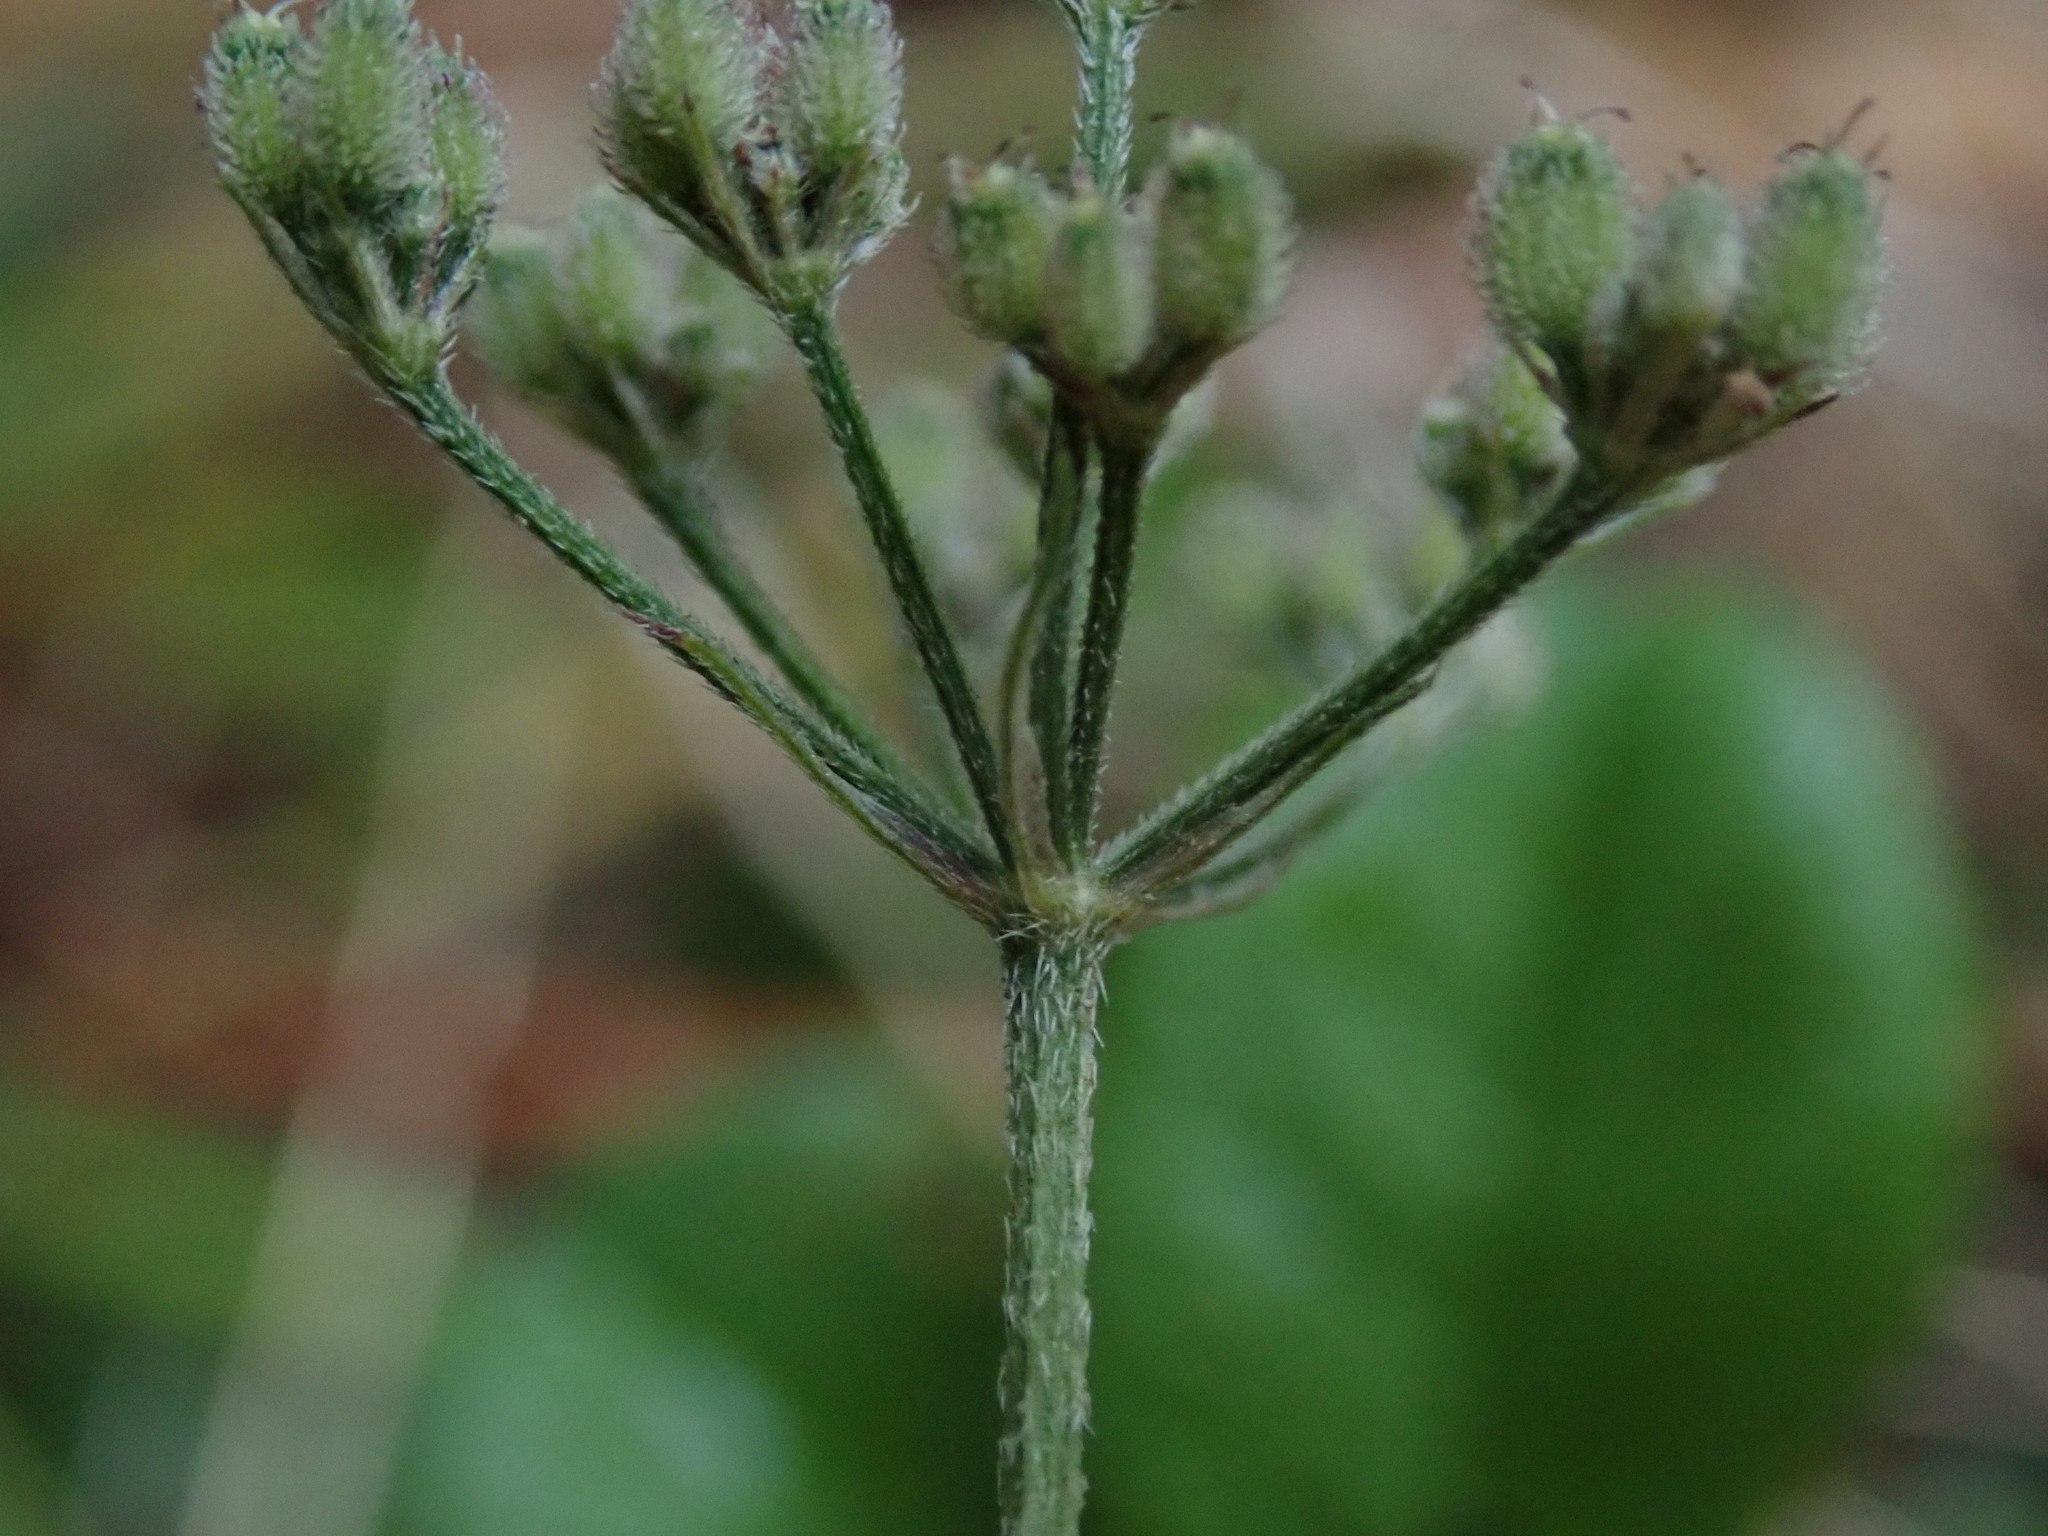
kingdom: Plantae
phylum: Tracheophyta
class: Magnoliopsida
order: Apiales
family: Apiaceae
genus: Torilis
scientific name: Torilis japonica
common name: Upright hedge-parsley
